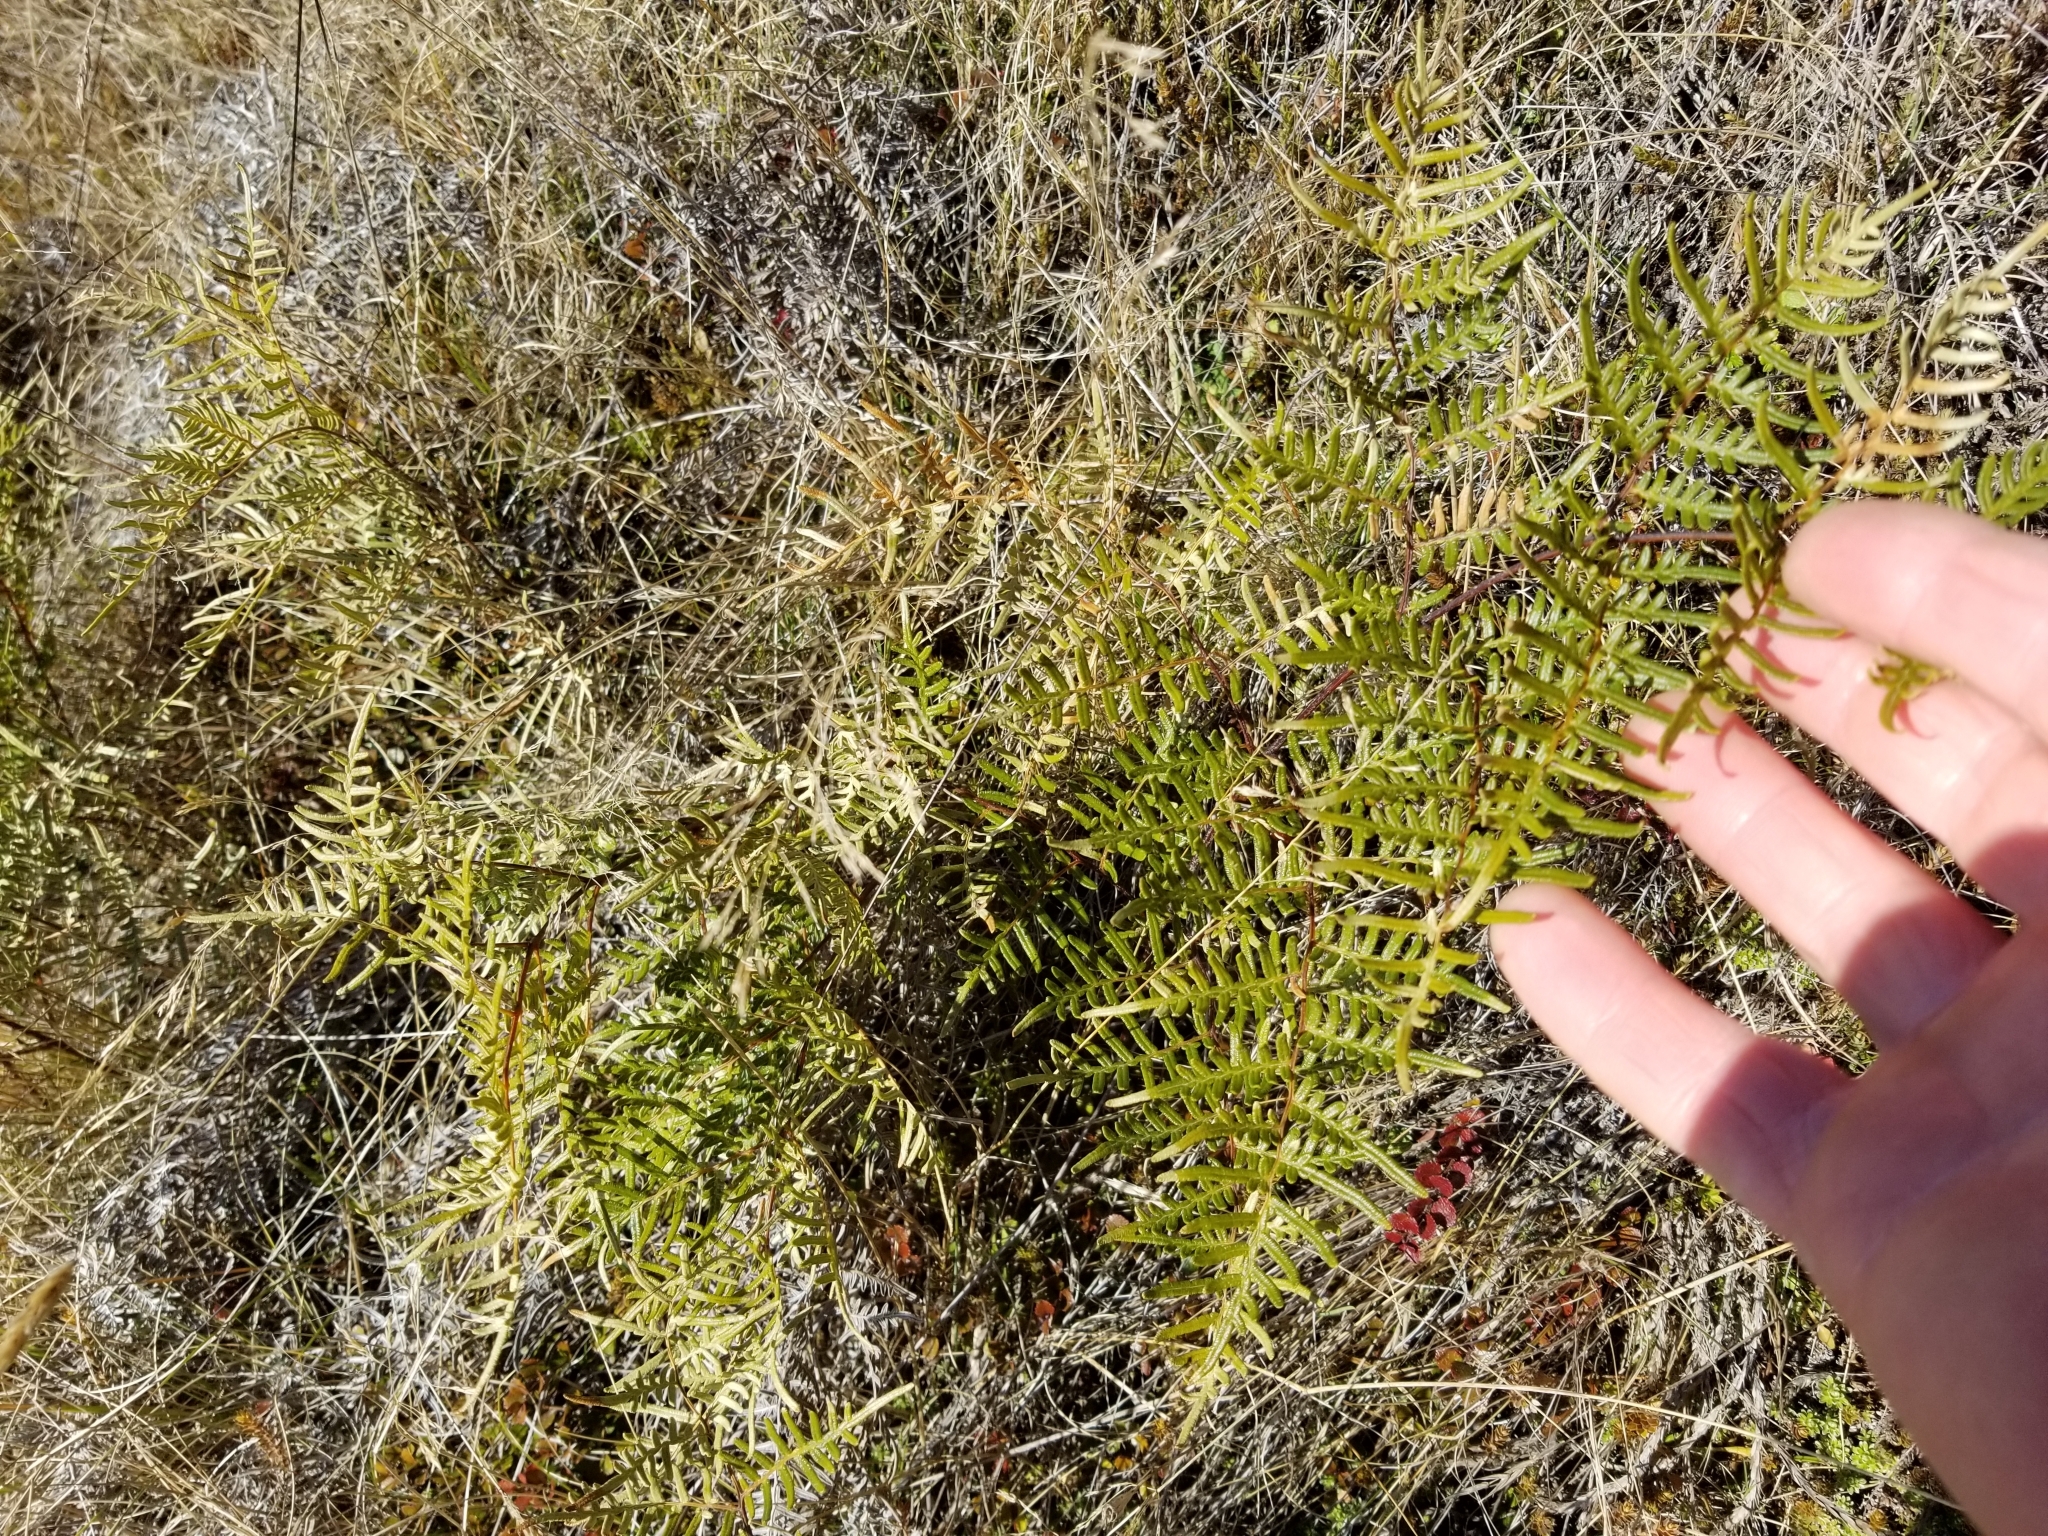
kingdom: Plantae
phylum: Tracheophyta
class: Polypodiopsida
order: Polypodiales
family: Dennstaedtiaceae
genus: Pteridium
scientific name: Pteridium esculentum
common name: Bracken fern
